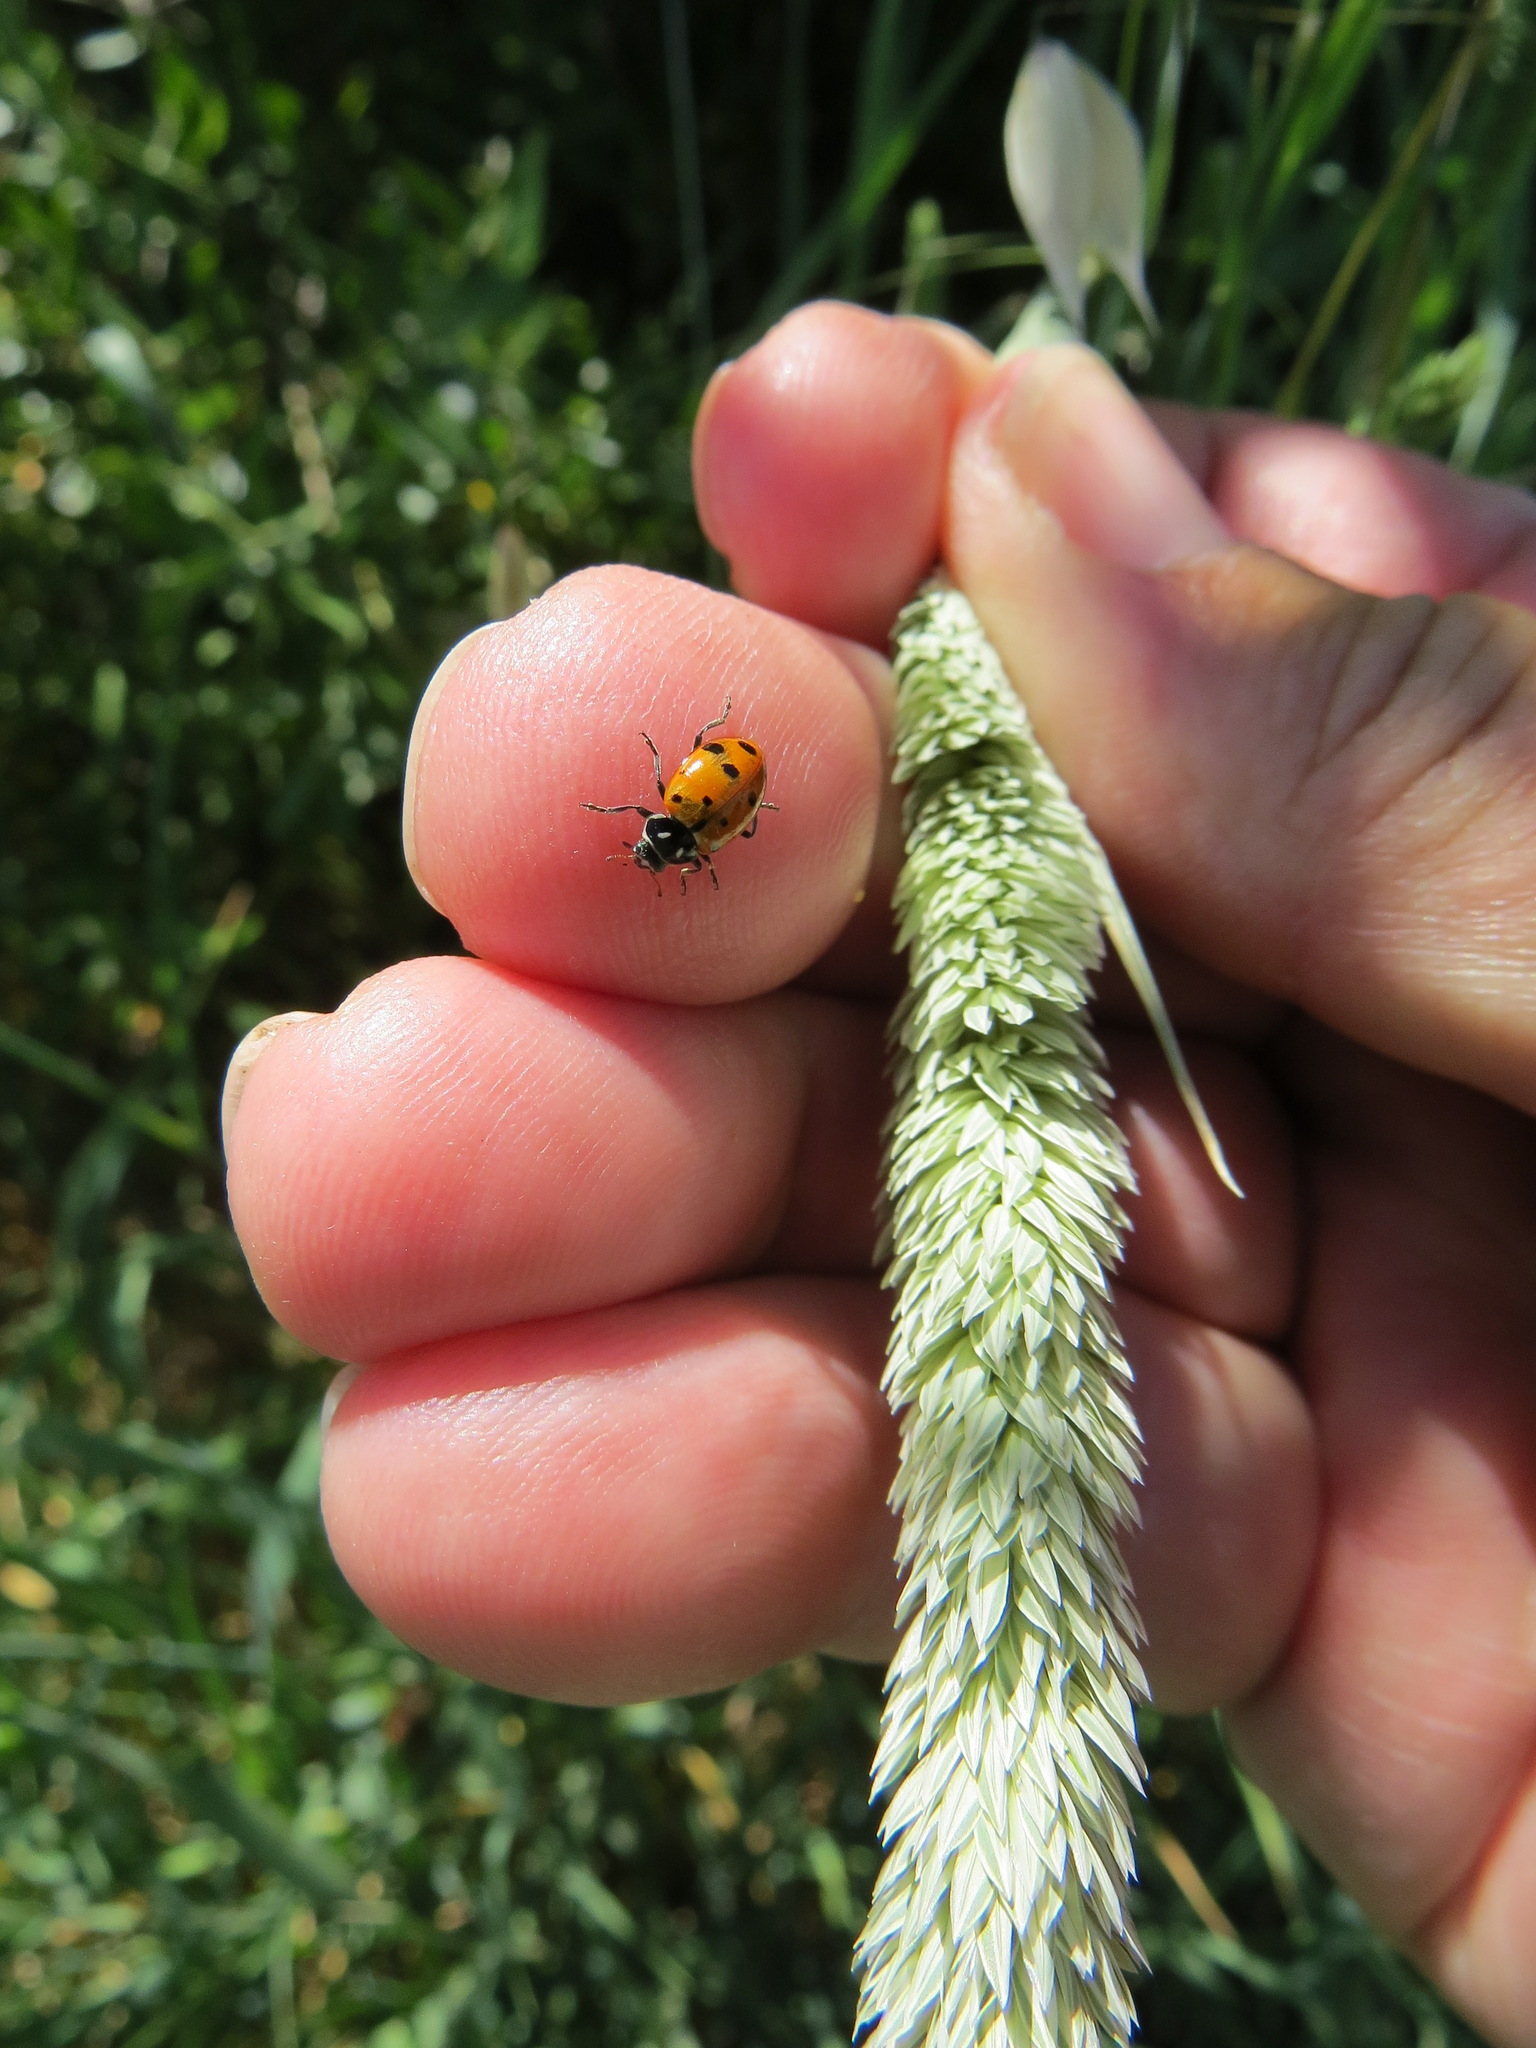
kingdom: Animalia
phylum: Arthropoda
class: Insecta
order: Coleoptera
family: Coccinellidae
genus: Hippodamia
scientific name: Hippodamia convergens
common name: Convergent lady beetle
